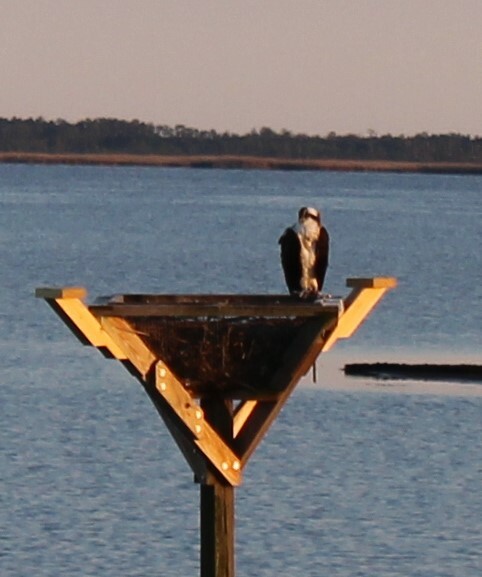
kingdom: Animalia
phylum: Chordata
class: Aves
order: Accipitriformes
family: Pandionidae
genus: Pandion
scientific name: Pandion haliaetus
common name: Osprey
